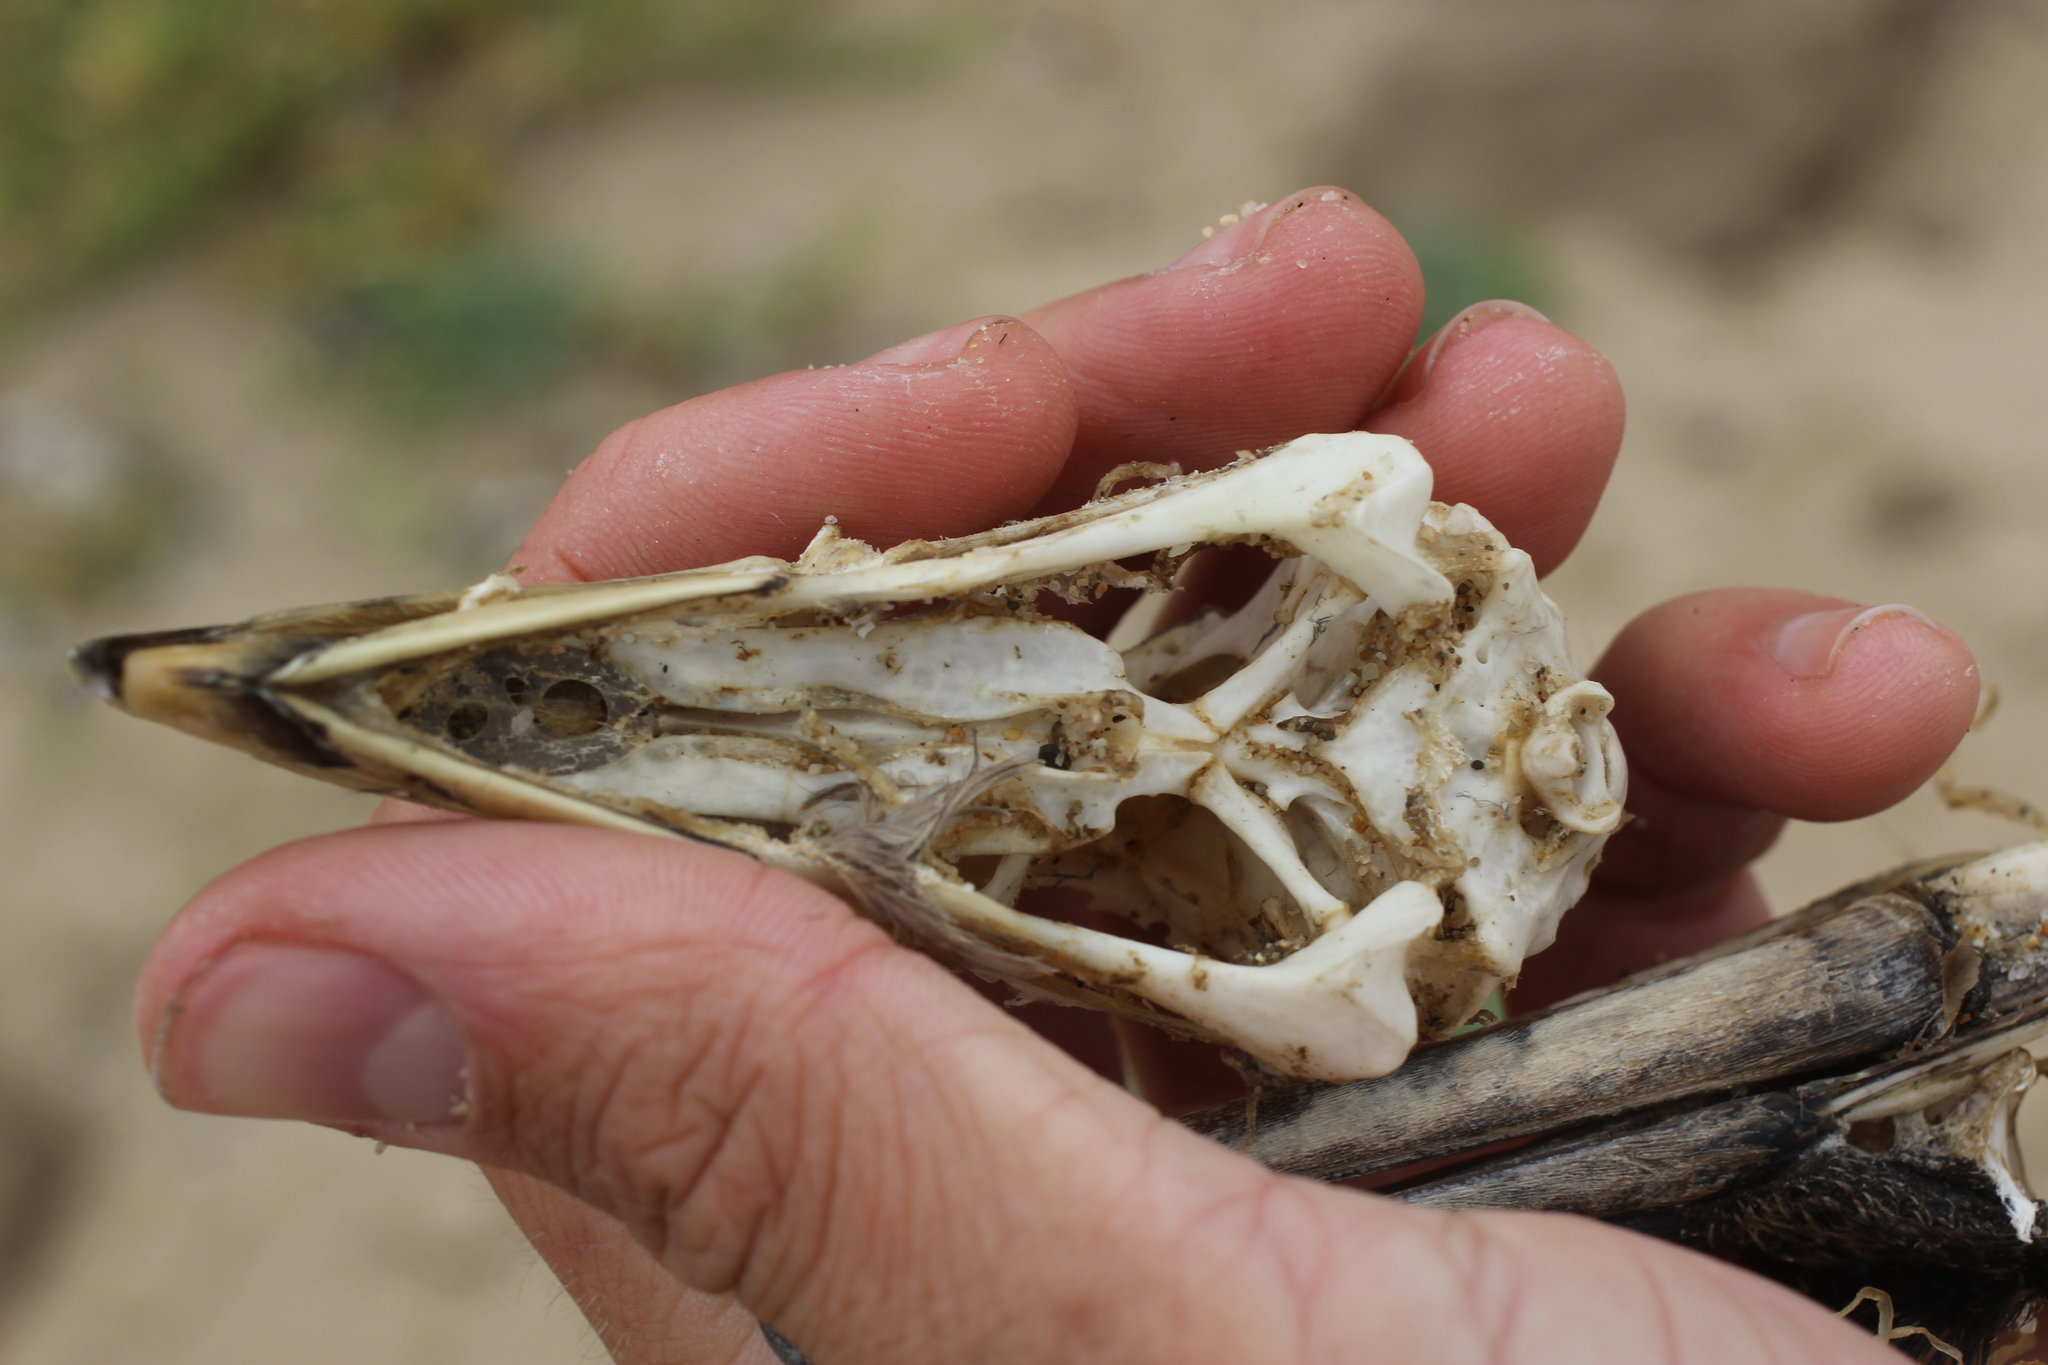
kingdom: Animalia
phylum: Chordata
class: Aves
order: Procellariiformes
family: Procellariidae
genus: Fulmarus
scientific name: Fulmarus glacialis
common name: Northern fulmar
